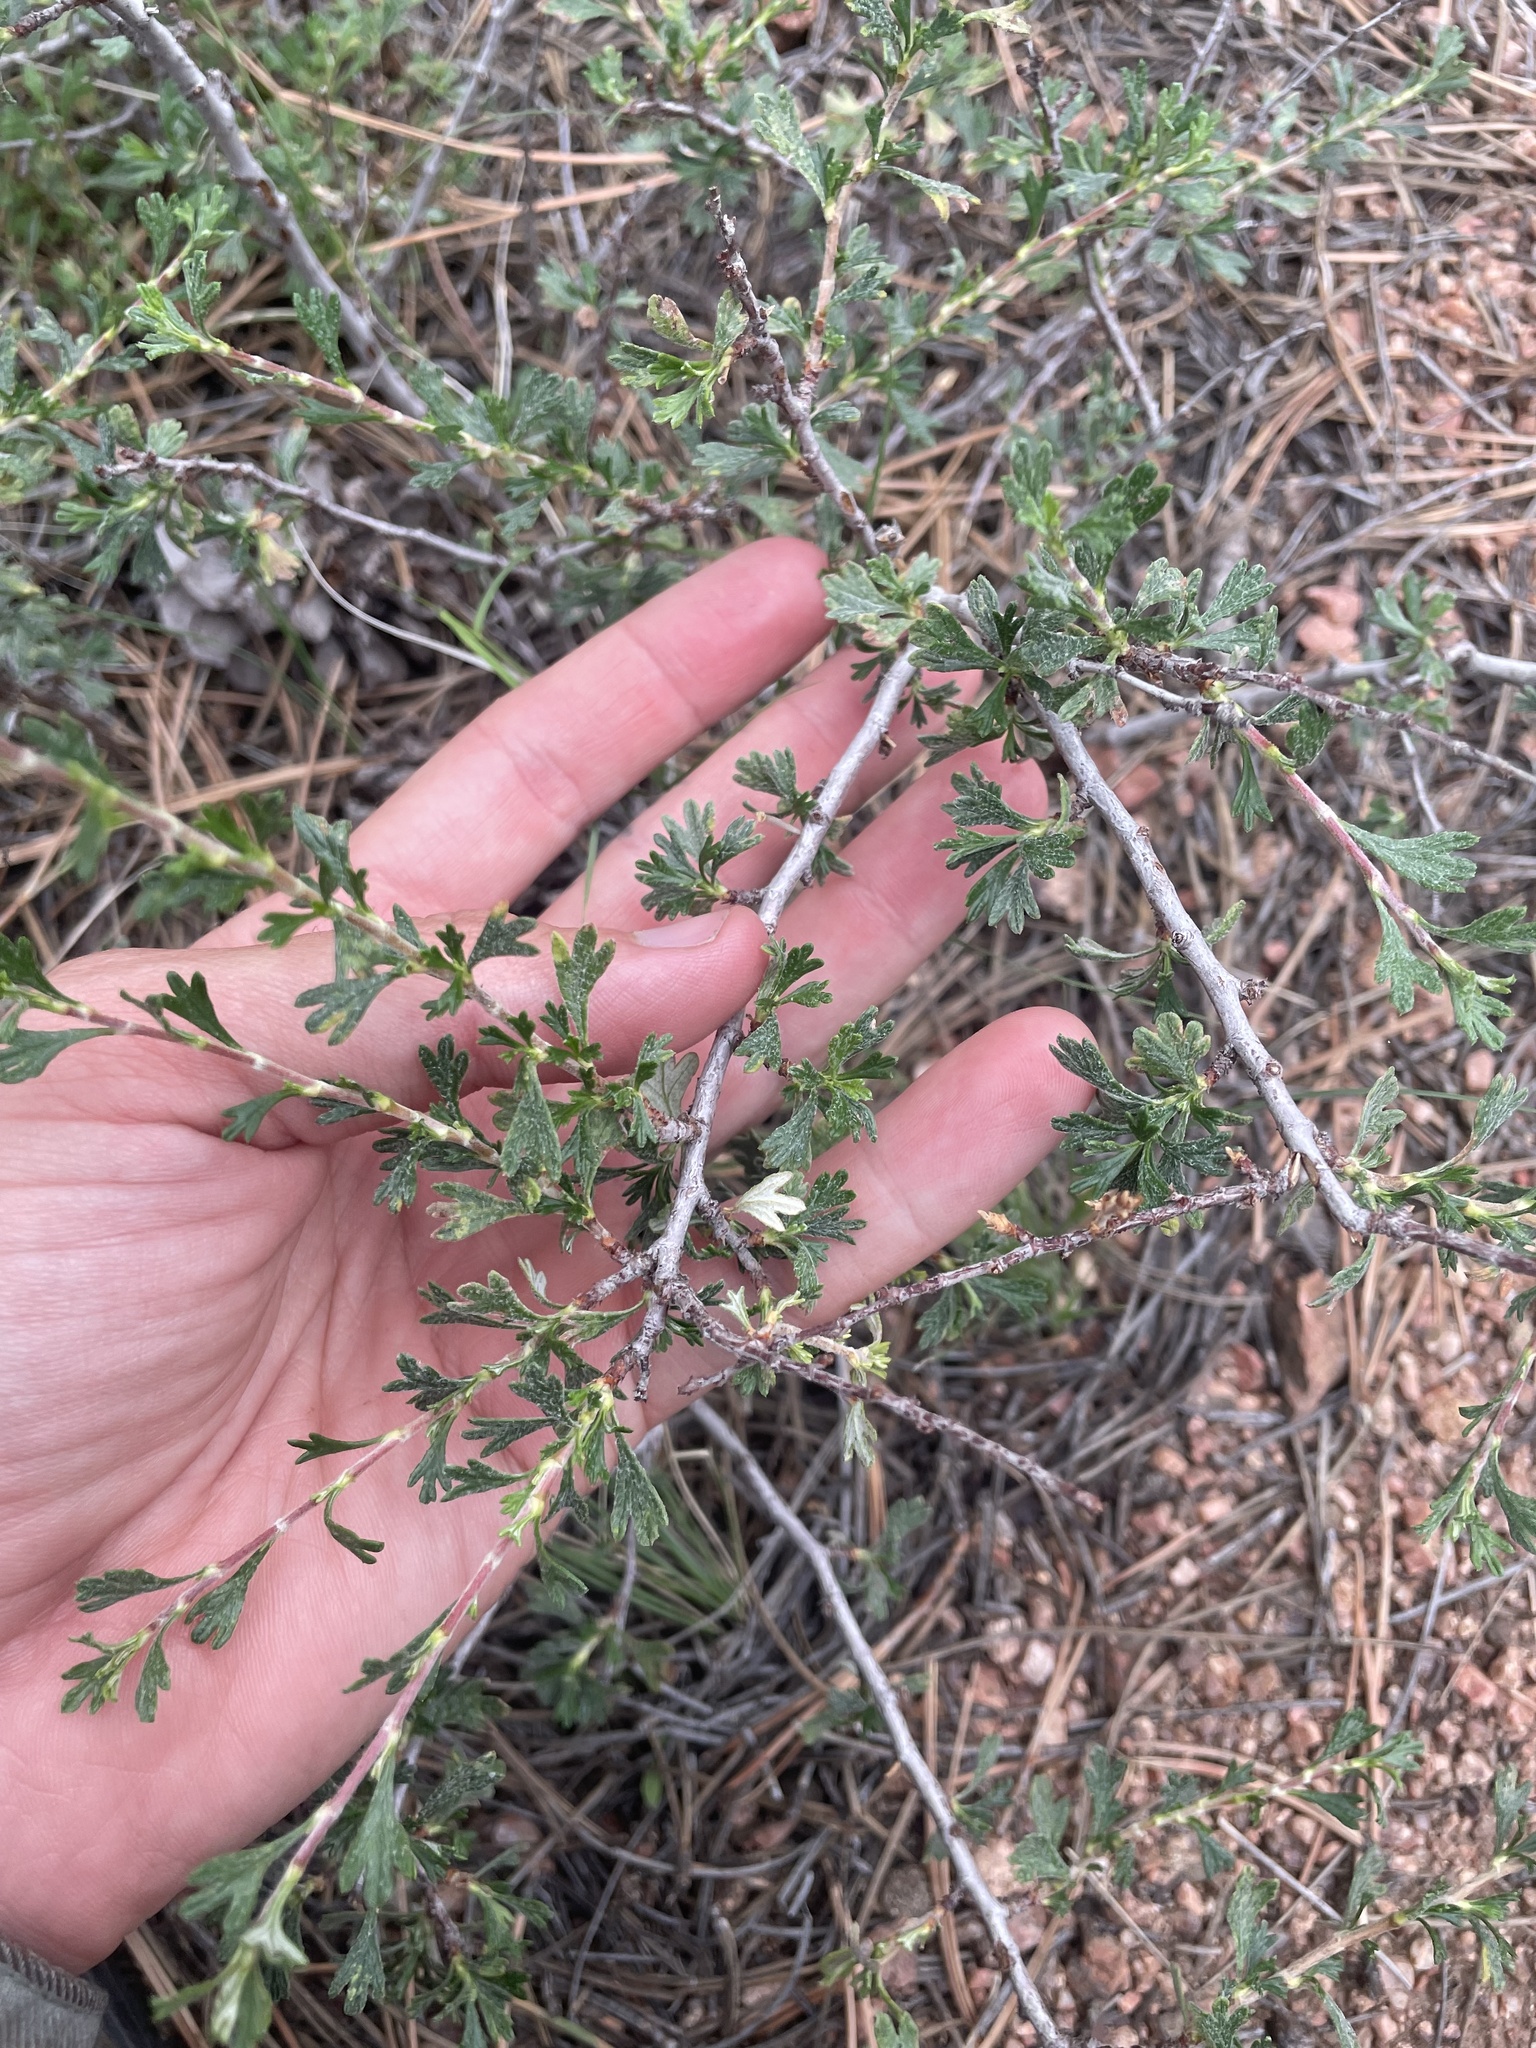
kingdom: Plantae
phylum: Tracheophyta
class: Magnoliopsida
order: Rosales
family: Rosaceae
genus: Purshia
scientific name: Purshia tridentata
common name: Antelope bitterbrush
